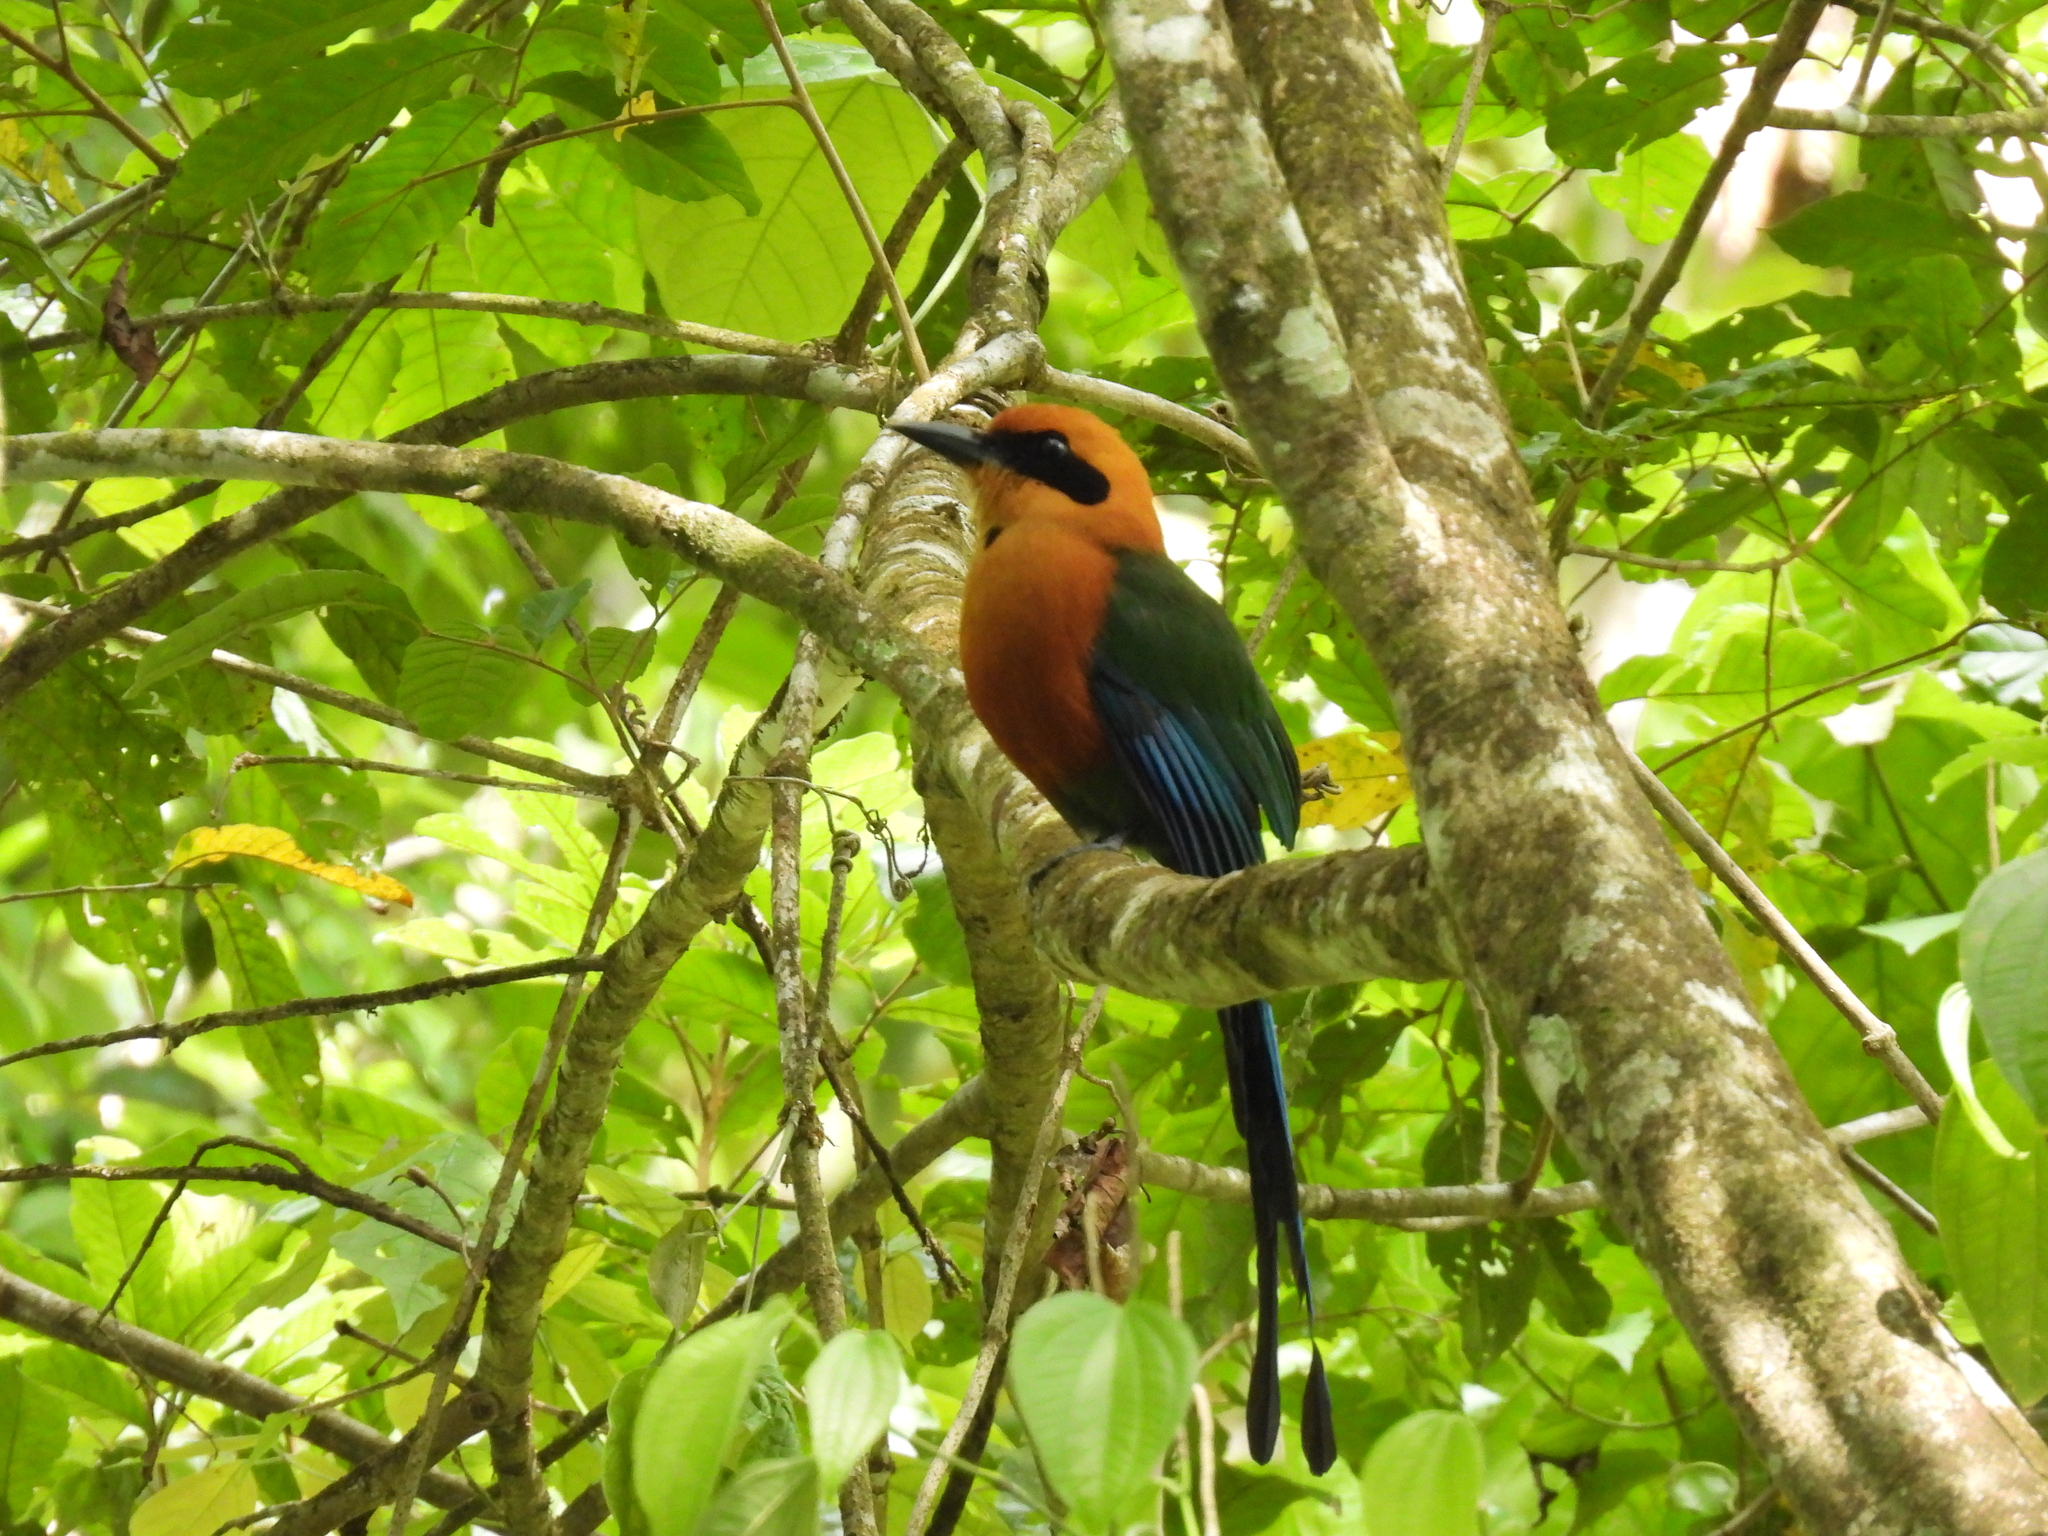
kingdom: Animalia
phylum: Chordata
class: Aves
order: Coraciiformes
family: Momotidae
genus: Baryphthengus
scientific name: Baryphthengus martii
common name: Rufous motmot
